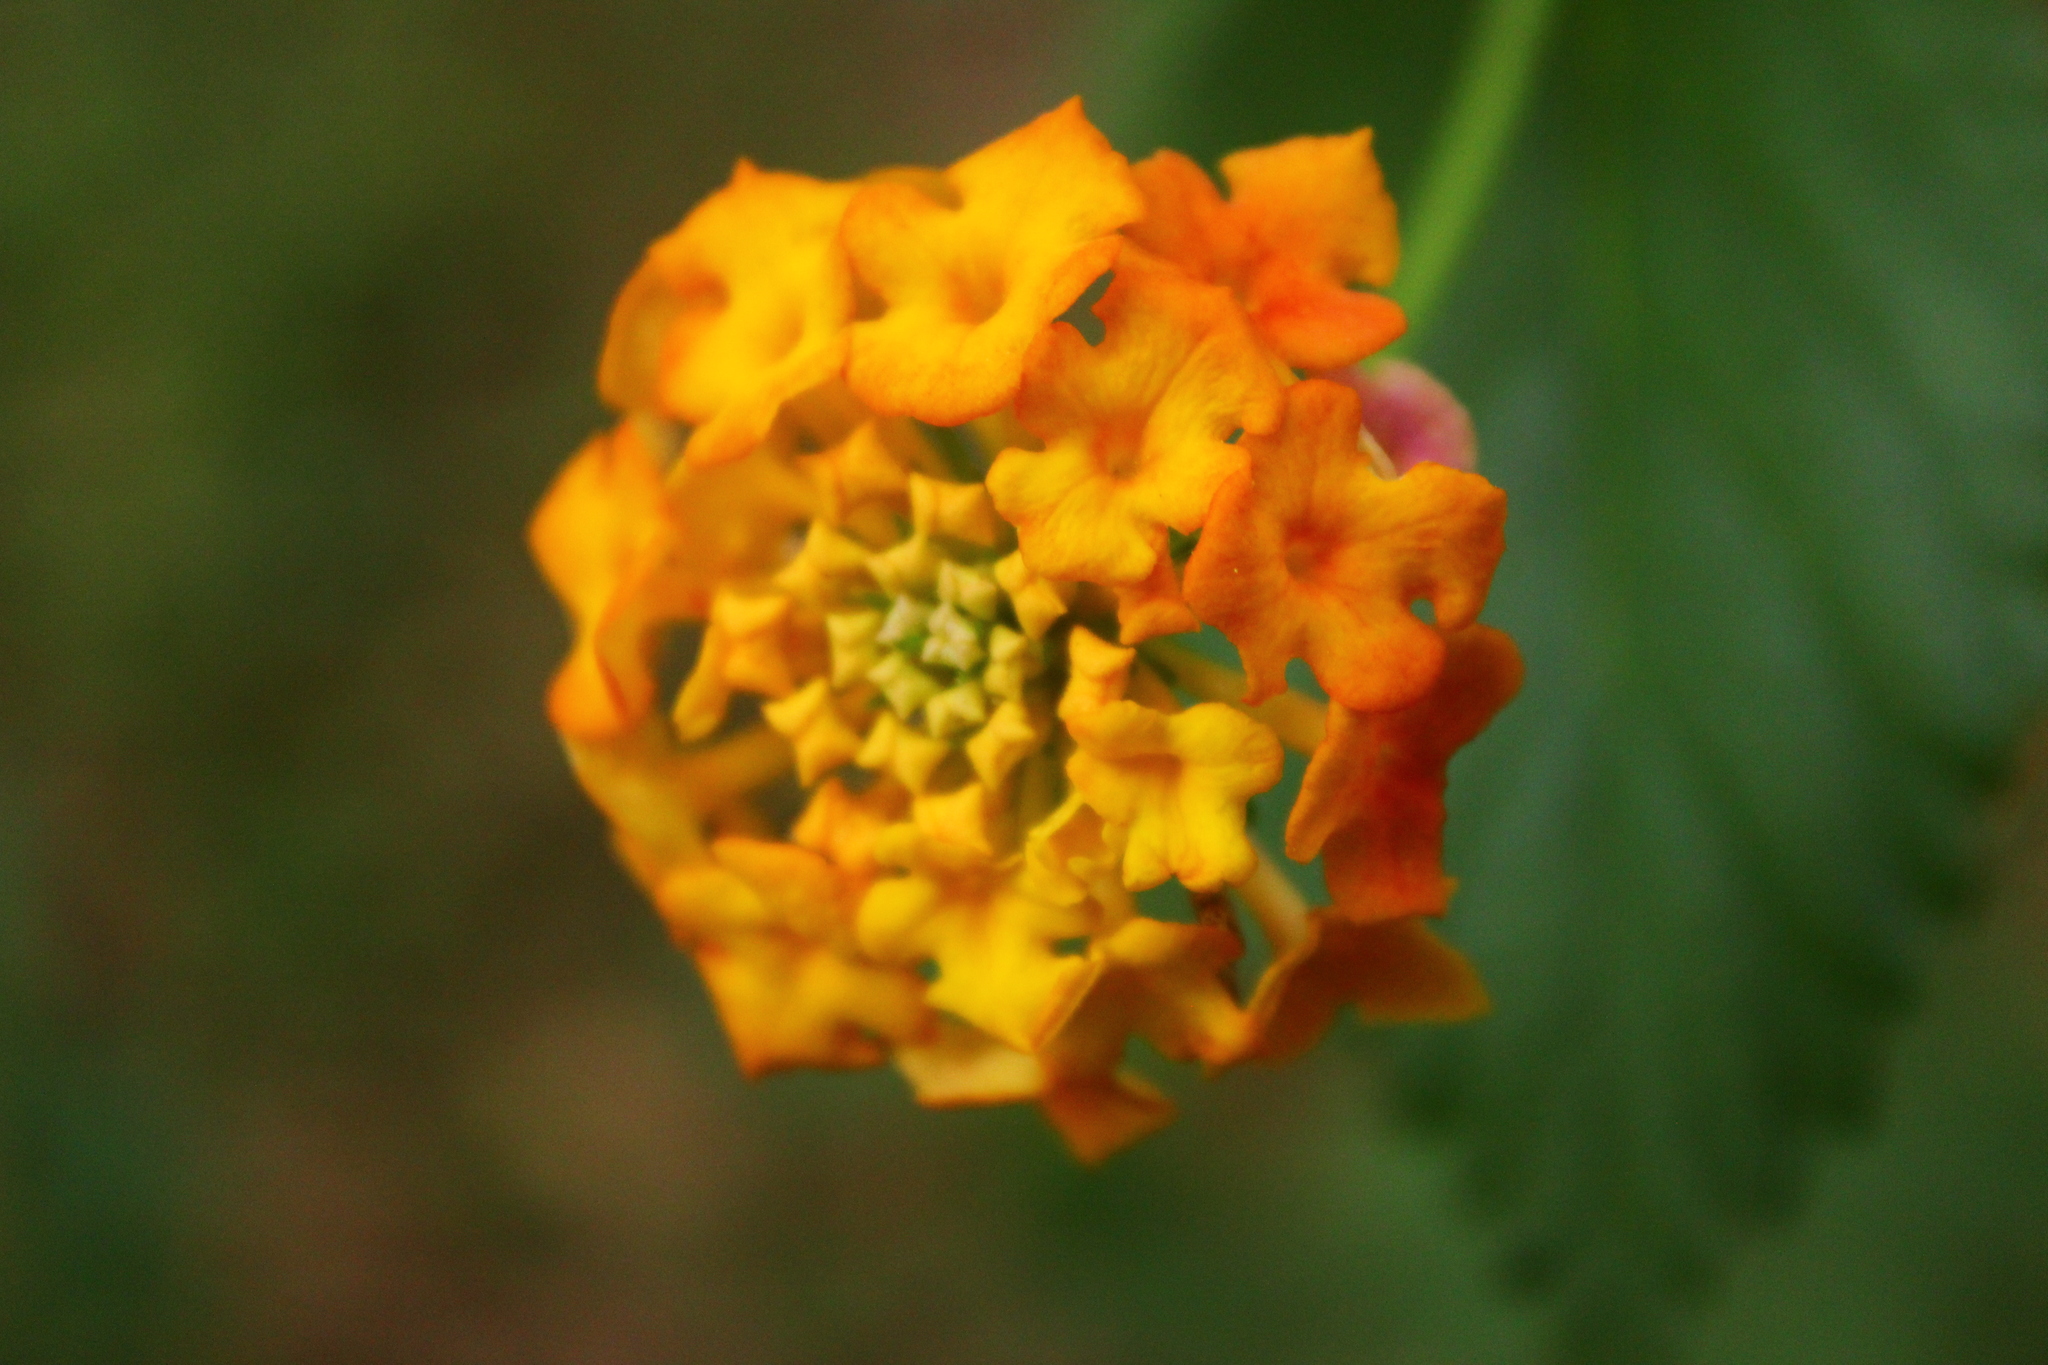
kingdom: Plantae
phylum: Tracheophyta
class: Magnoliopsida
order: Lamiales
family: Verbenaceae
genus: Lantana
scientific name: Lantana camara
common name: Lantana
